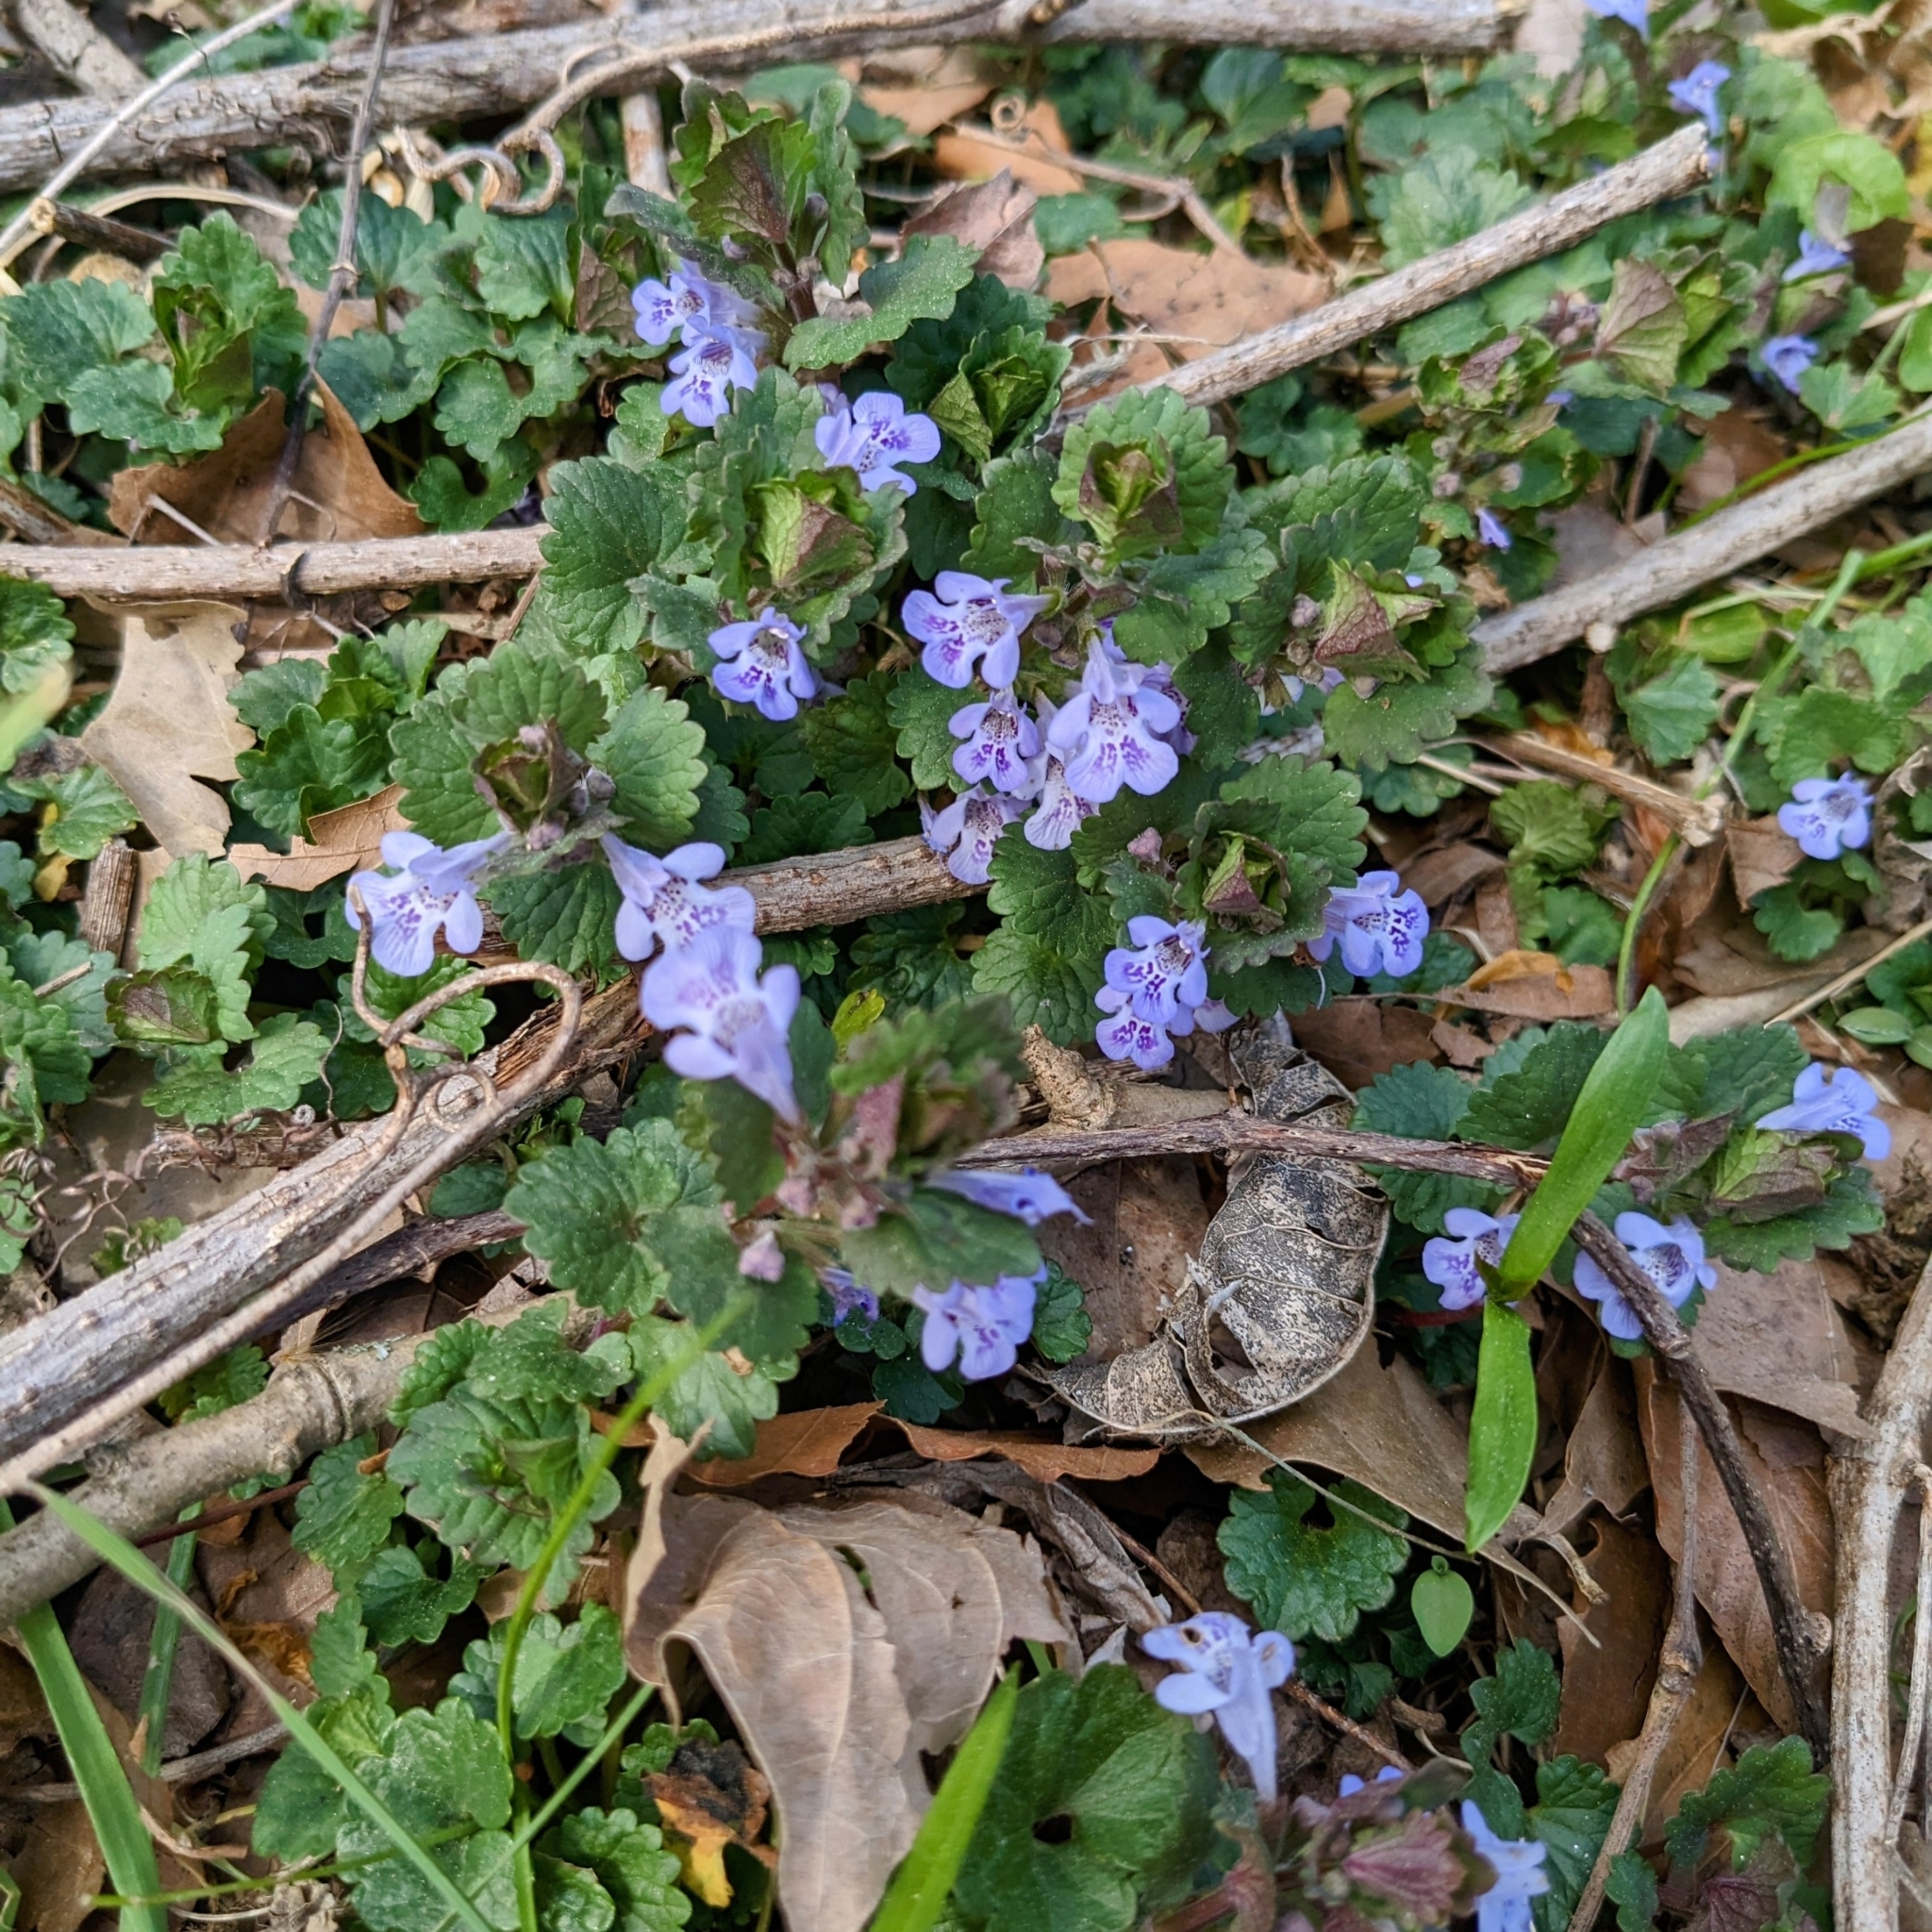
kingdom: Plantae
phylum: Tracheophyta
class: Magnoliopsida
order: Lamiales
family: Lamiaceae
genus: Glechoma
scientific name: Glechoma hederacea
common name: Ground ivy
